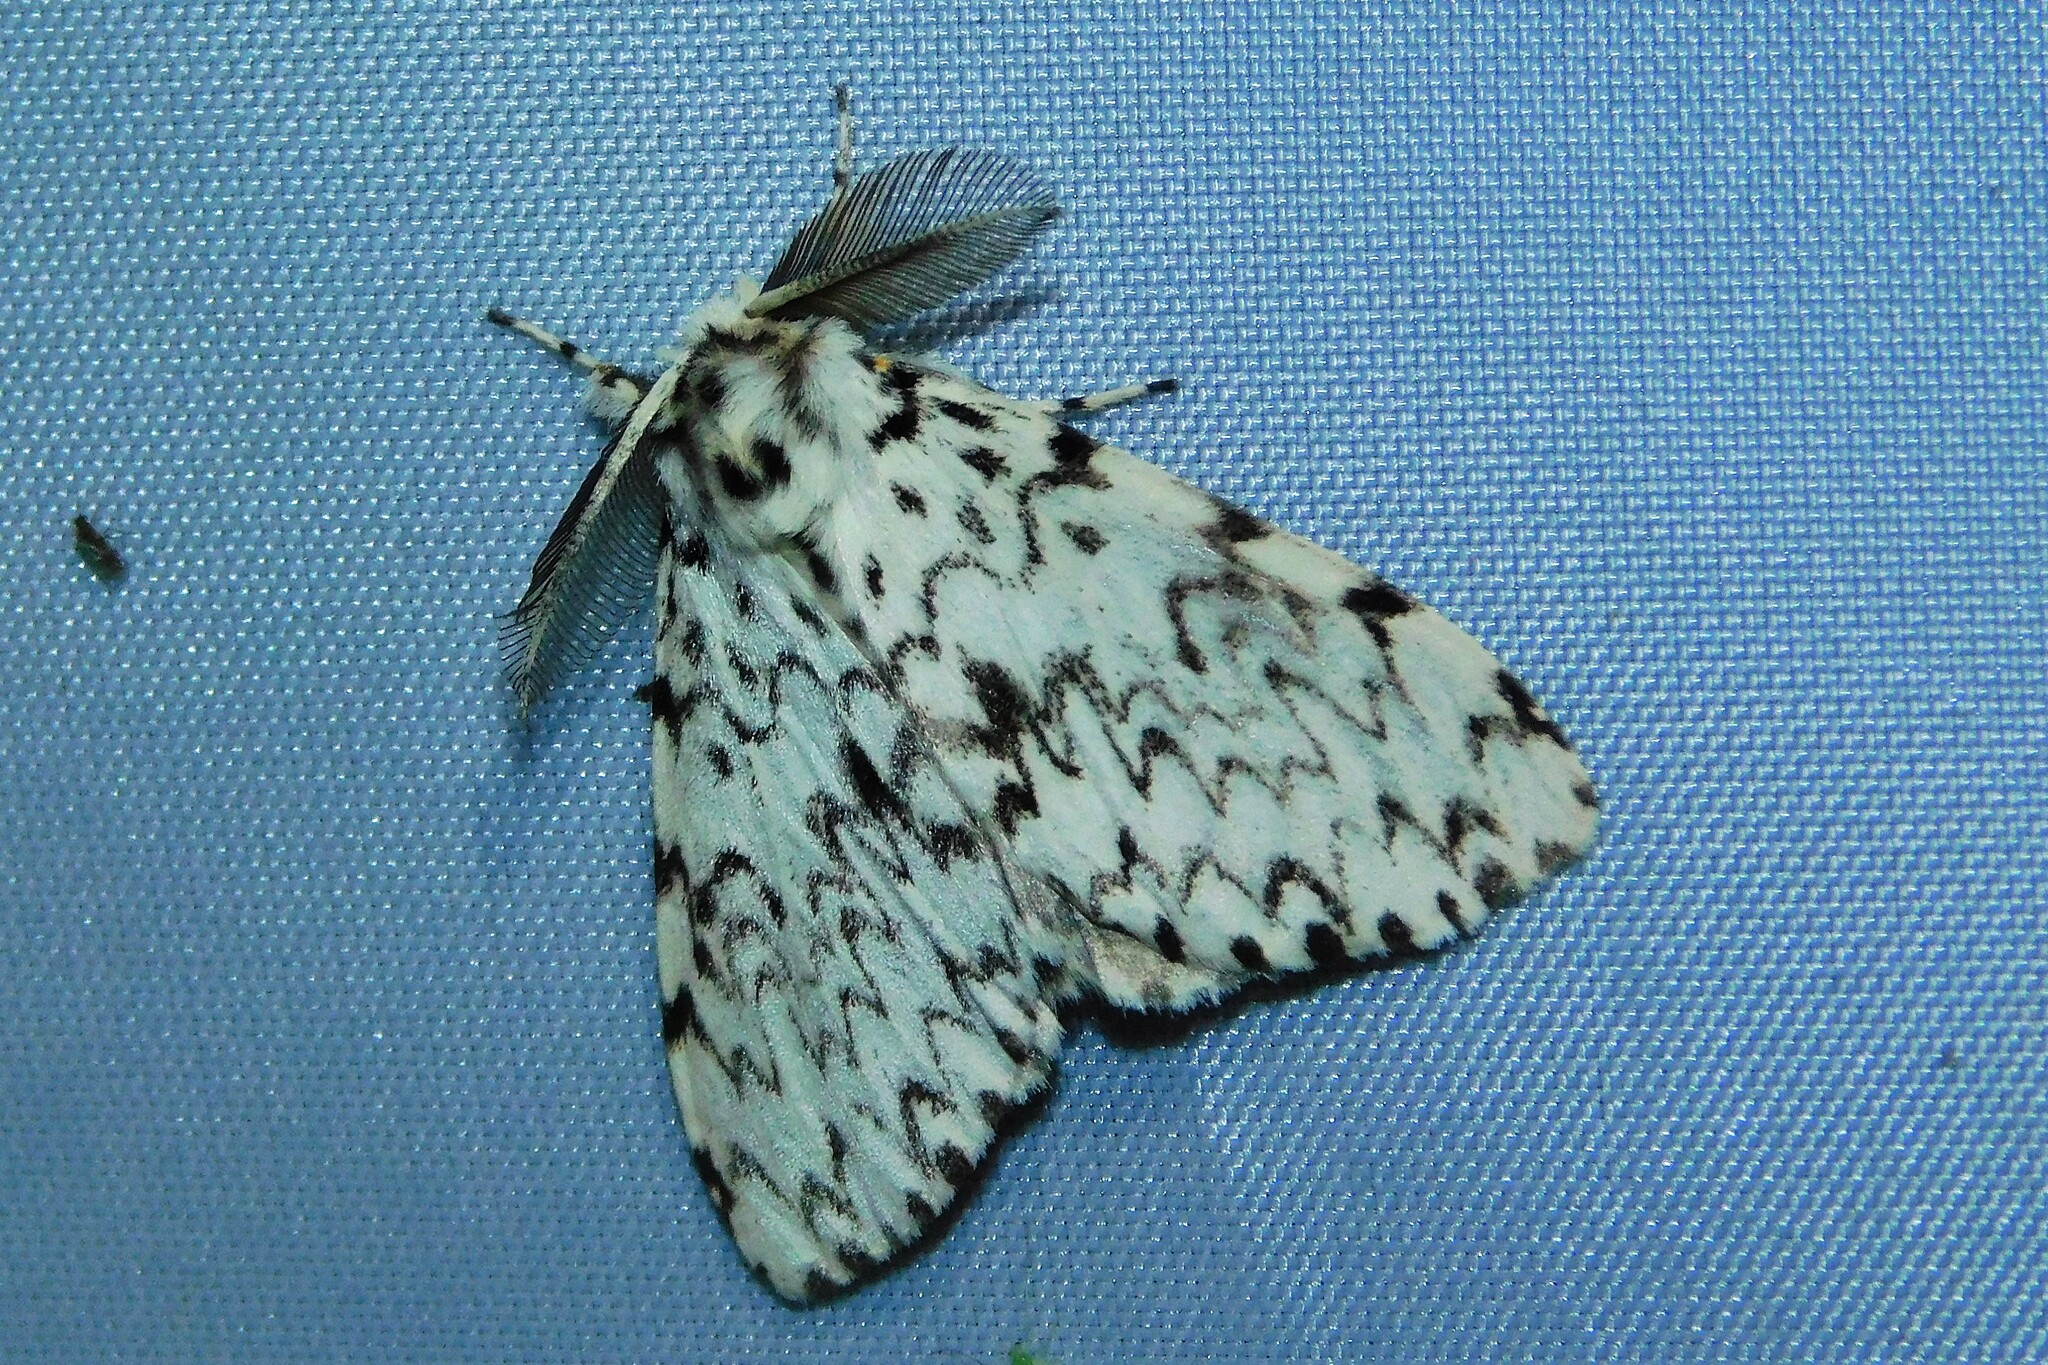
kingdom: Animalia
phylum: Arthropoda
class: Insecta
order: Lepidoptera
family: Erebidae
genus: Lymantria
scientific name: Lymantria monacha
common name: Black arches
